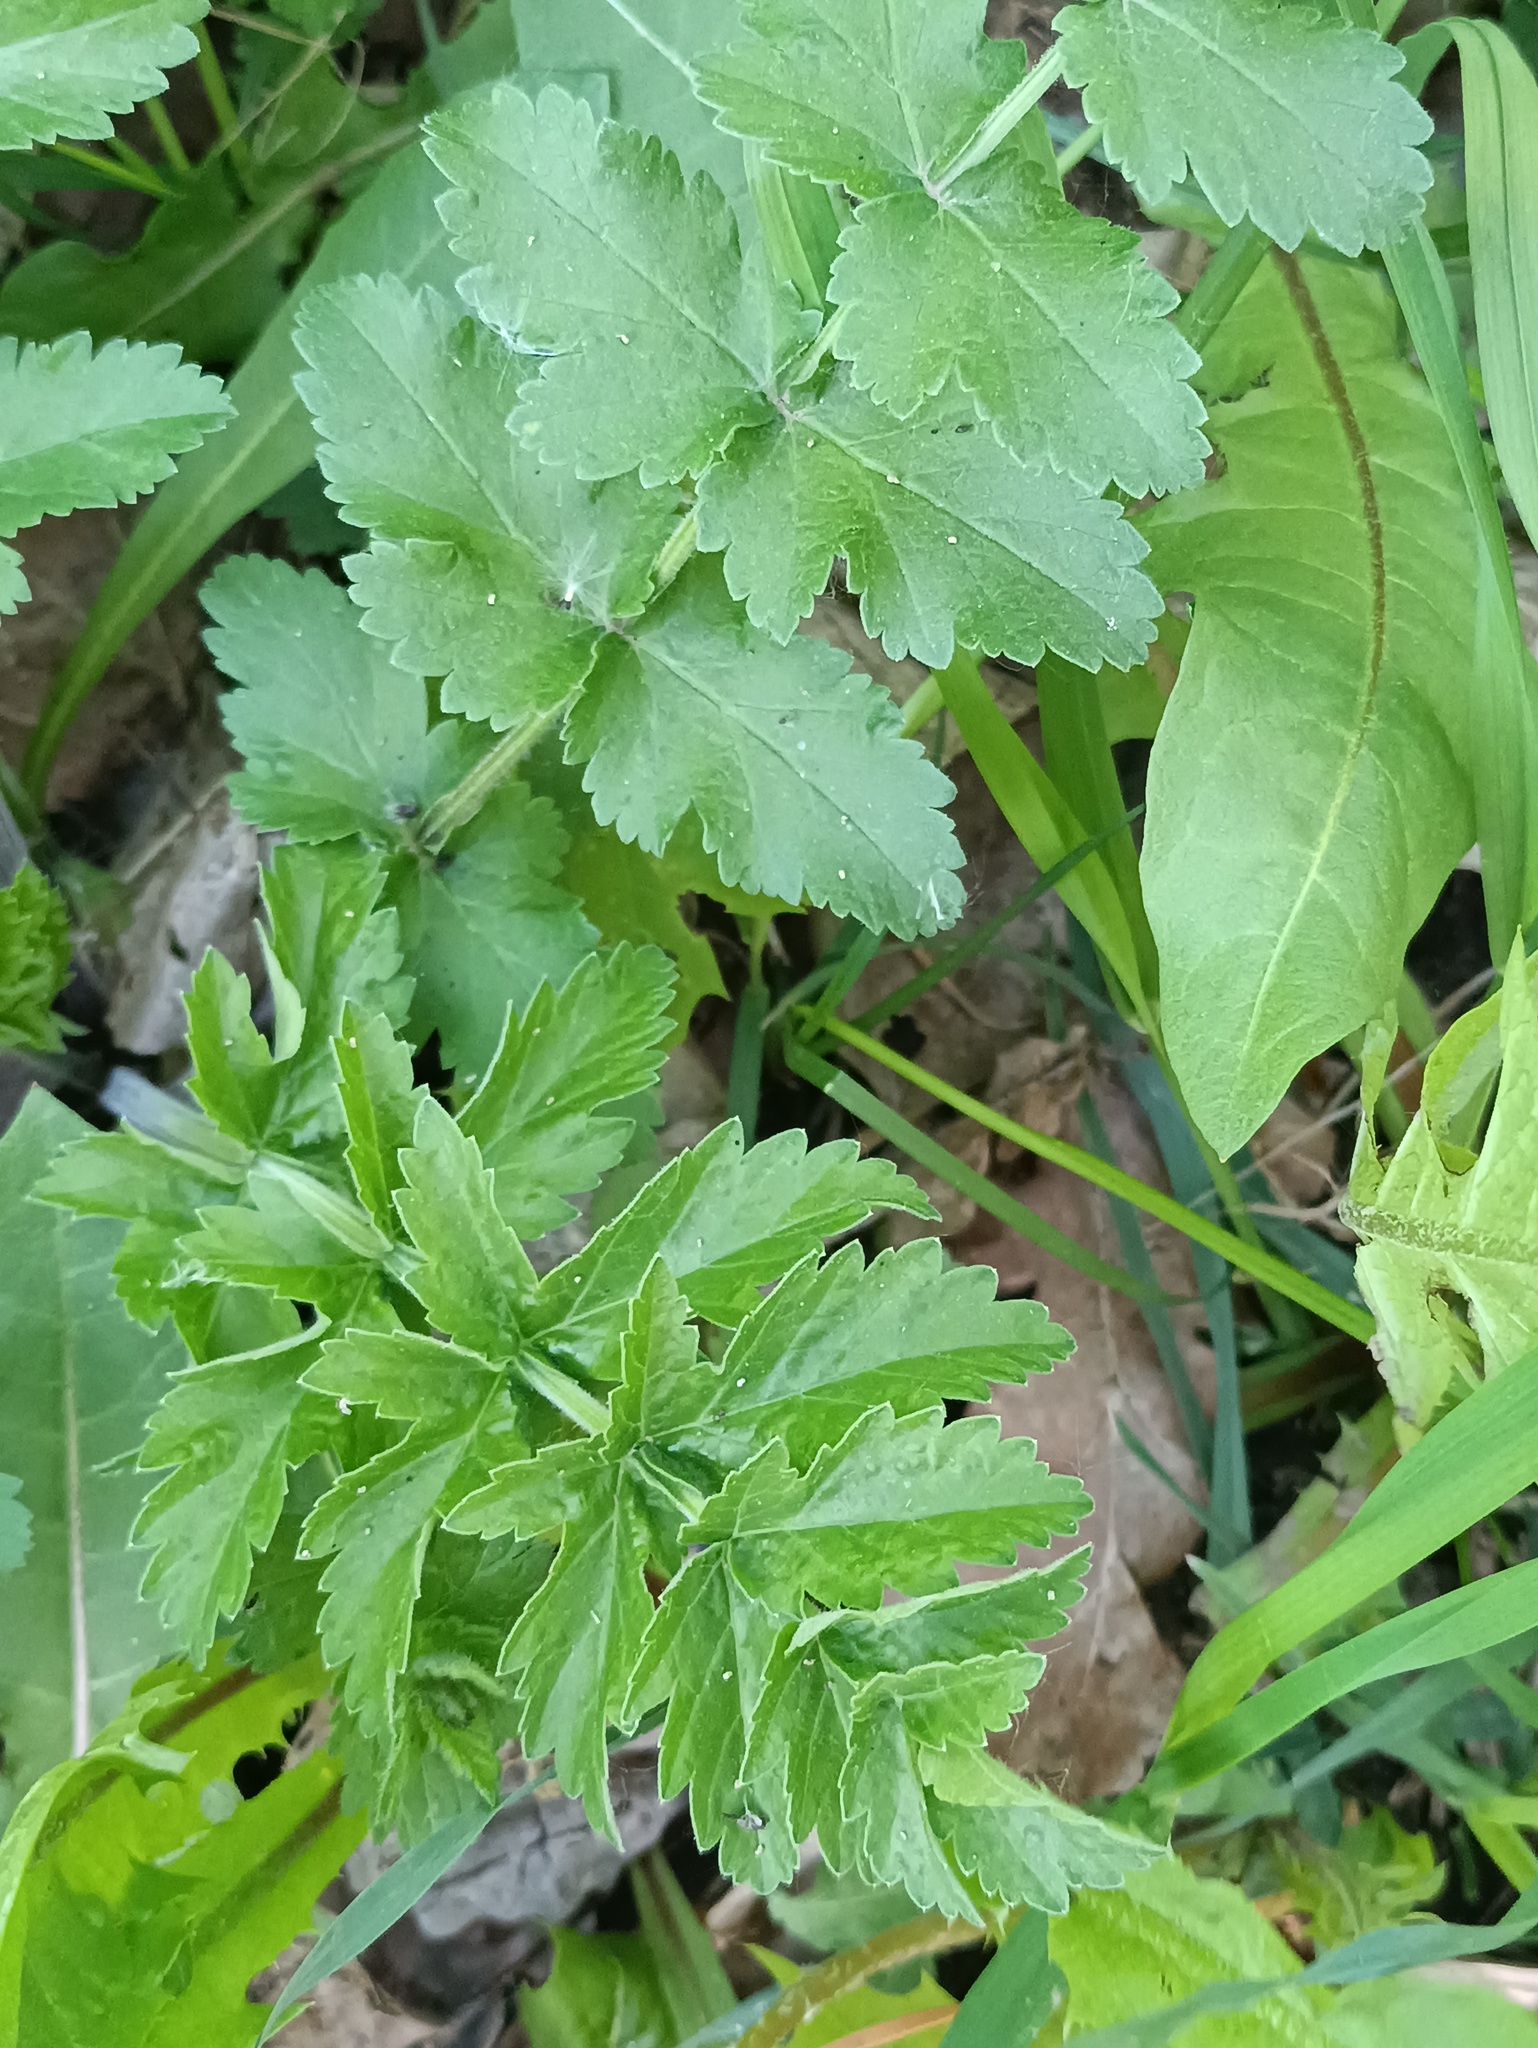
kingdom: Plantae
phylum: Tracheophyta
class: Magnoliopsida
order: Apiales
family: Apiaceae
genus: Pastinaca
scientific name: Pastinaca sativa
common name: Wild parsnip
